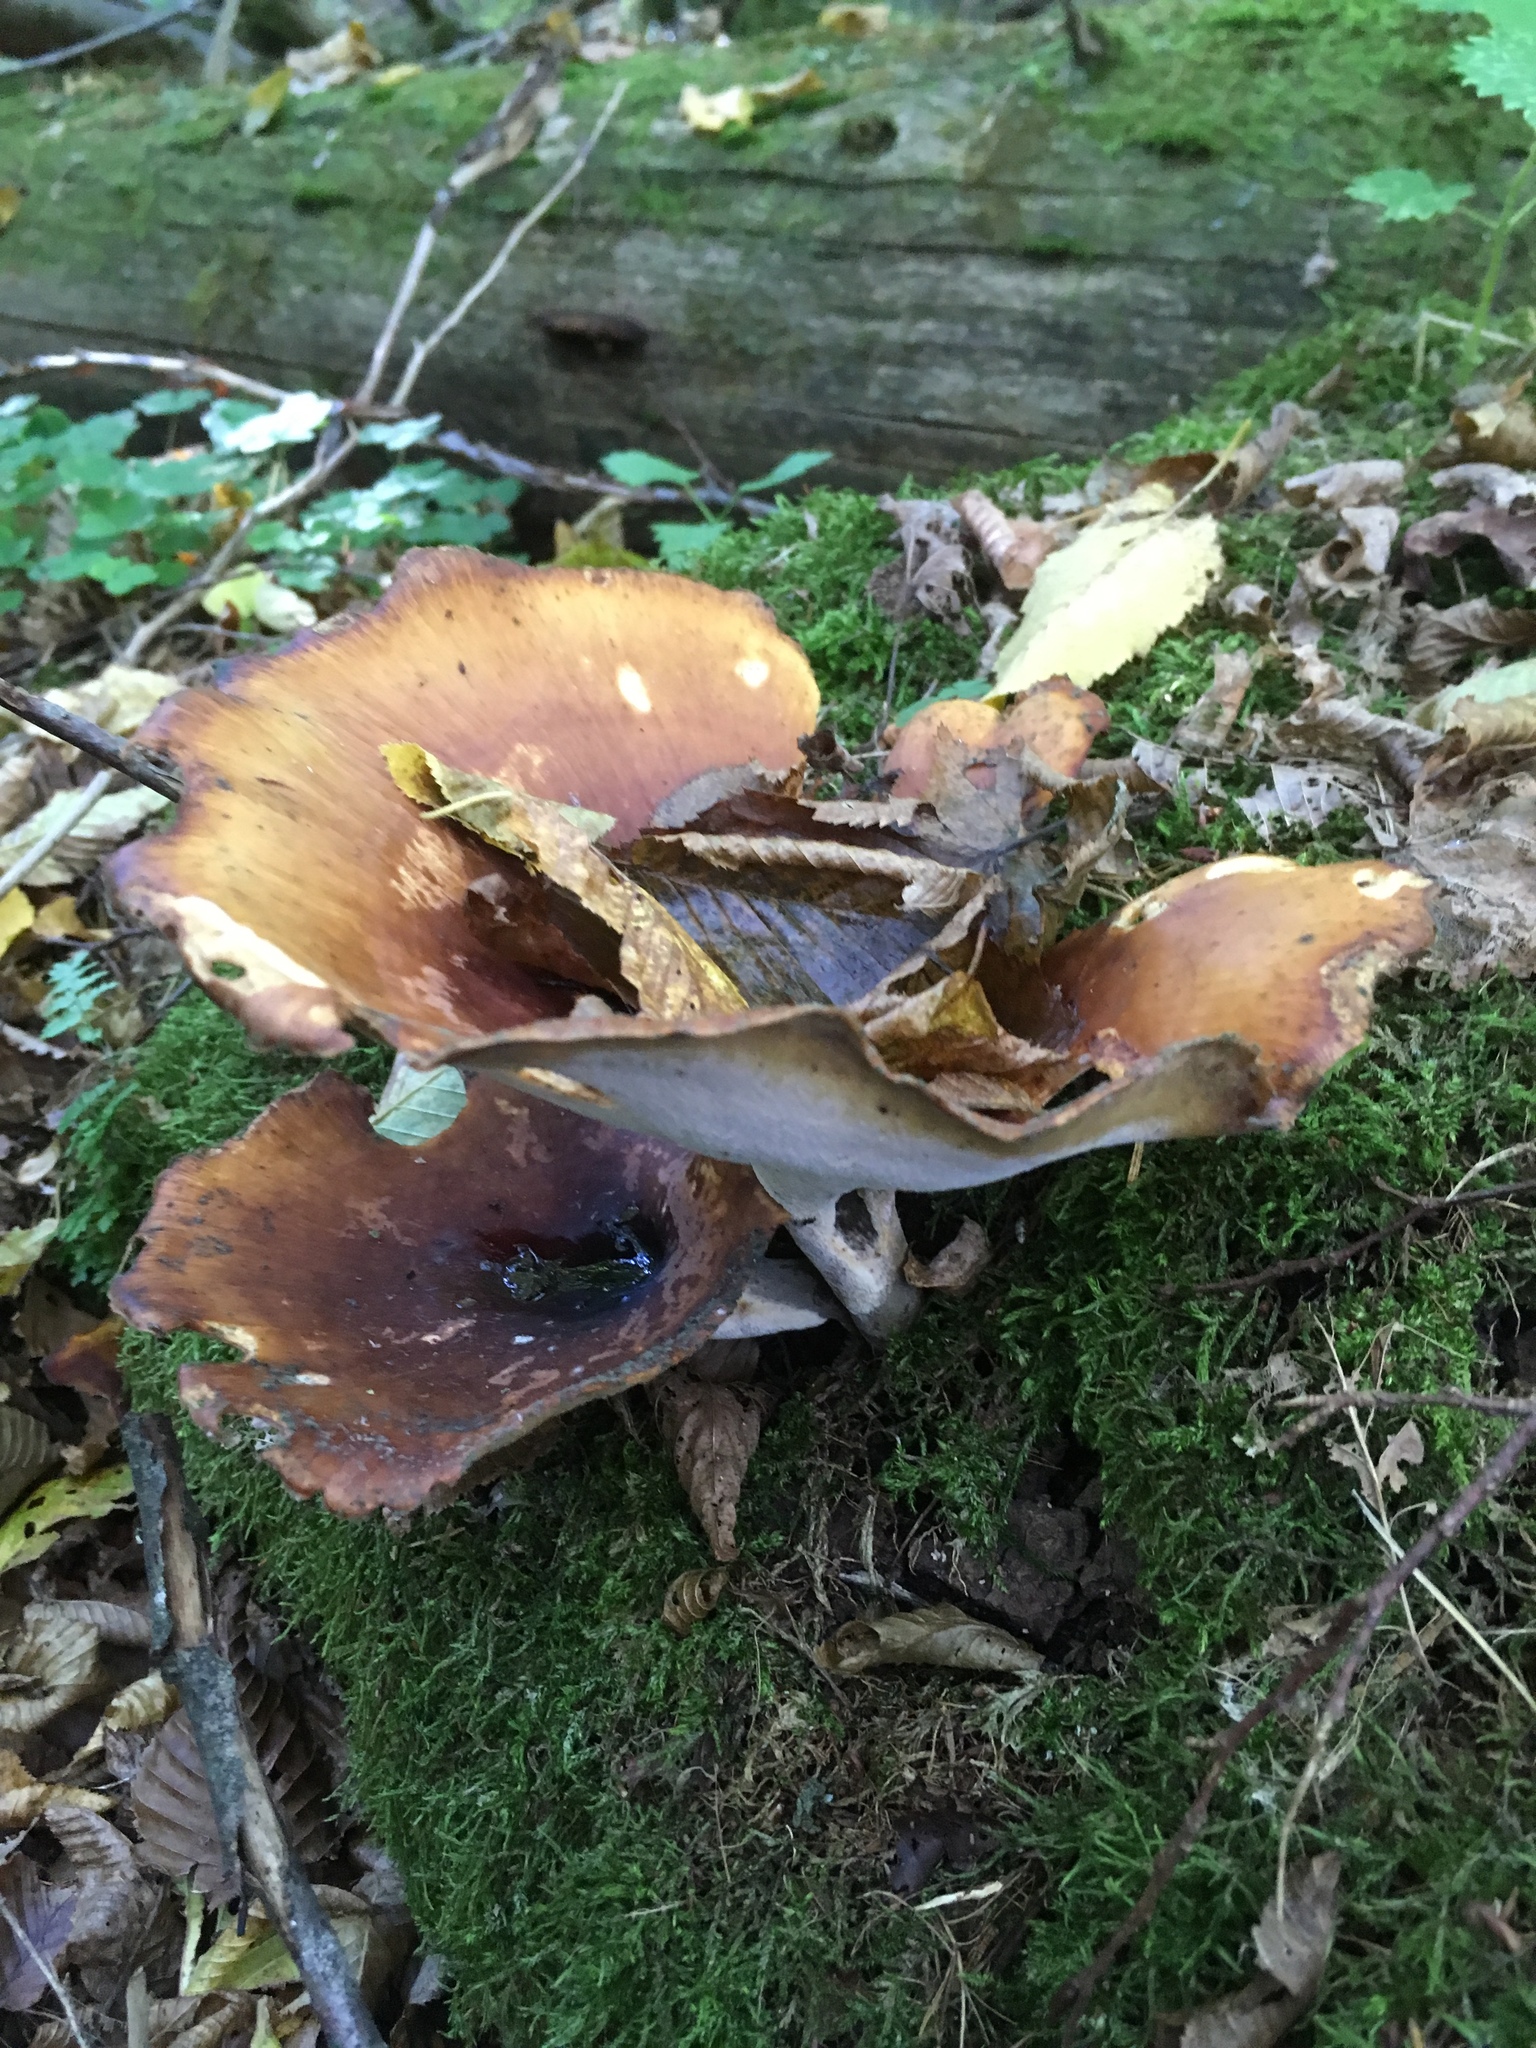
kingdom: Fungi
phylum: Basidiomycota
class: Agaricomycetes
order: Polyporales
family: Polyporaceae
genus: Picipes
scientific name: Picipes badius
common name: Bay polypore
